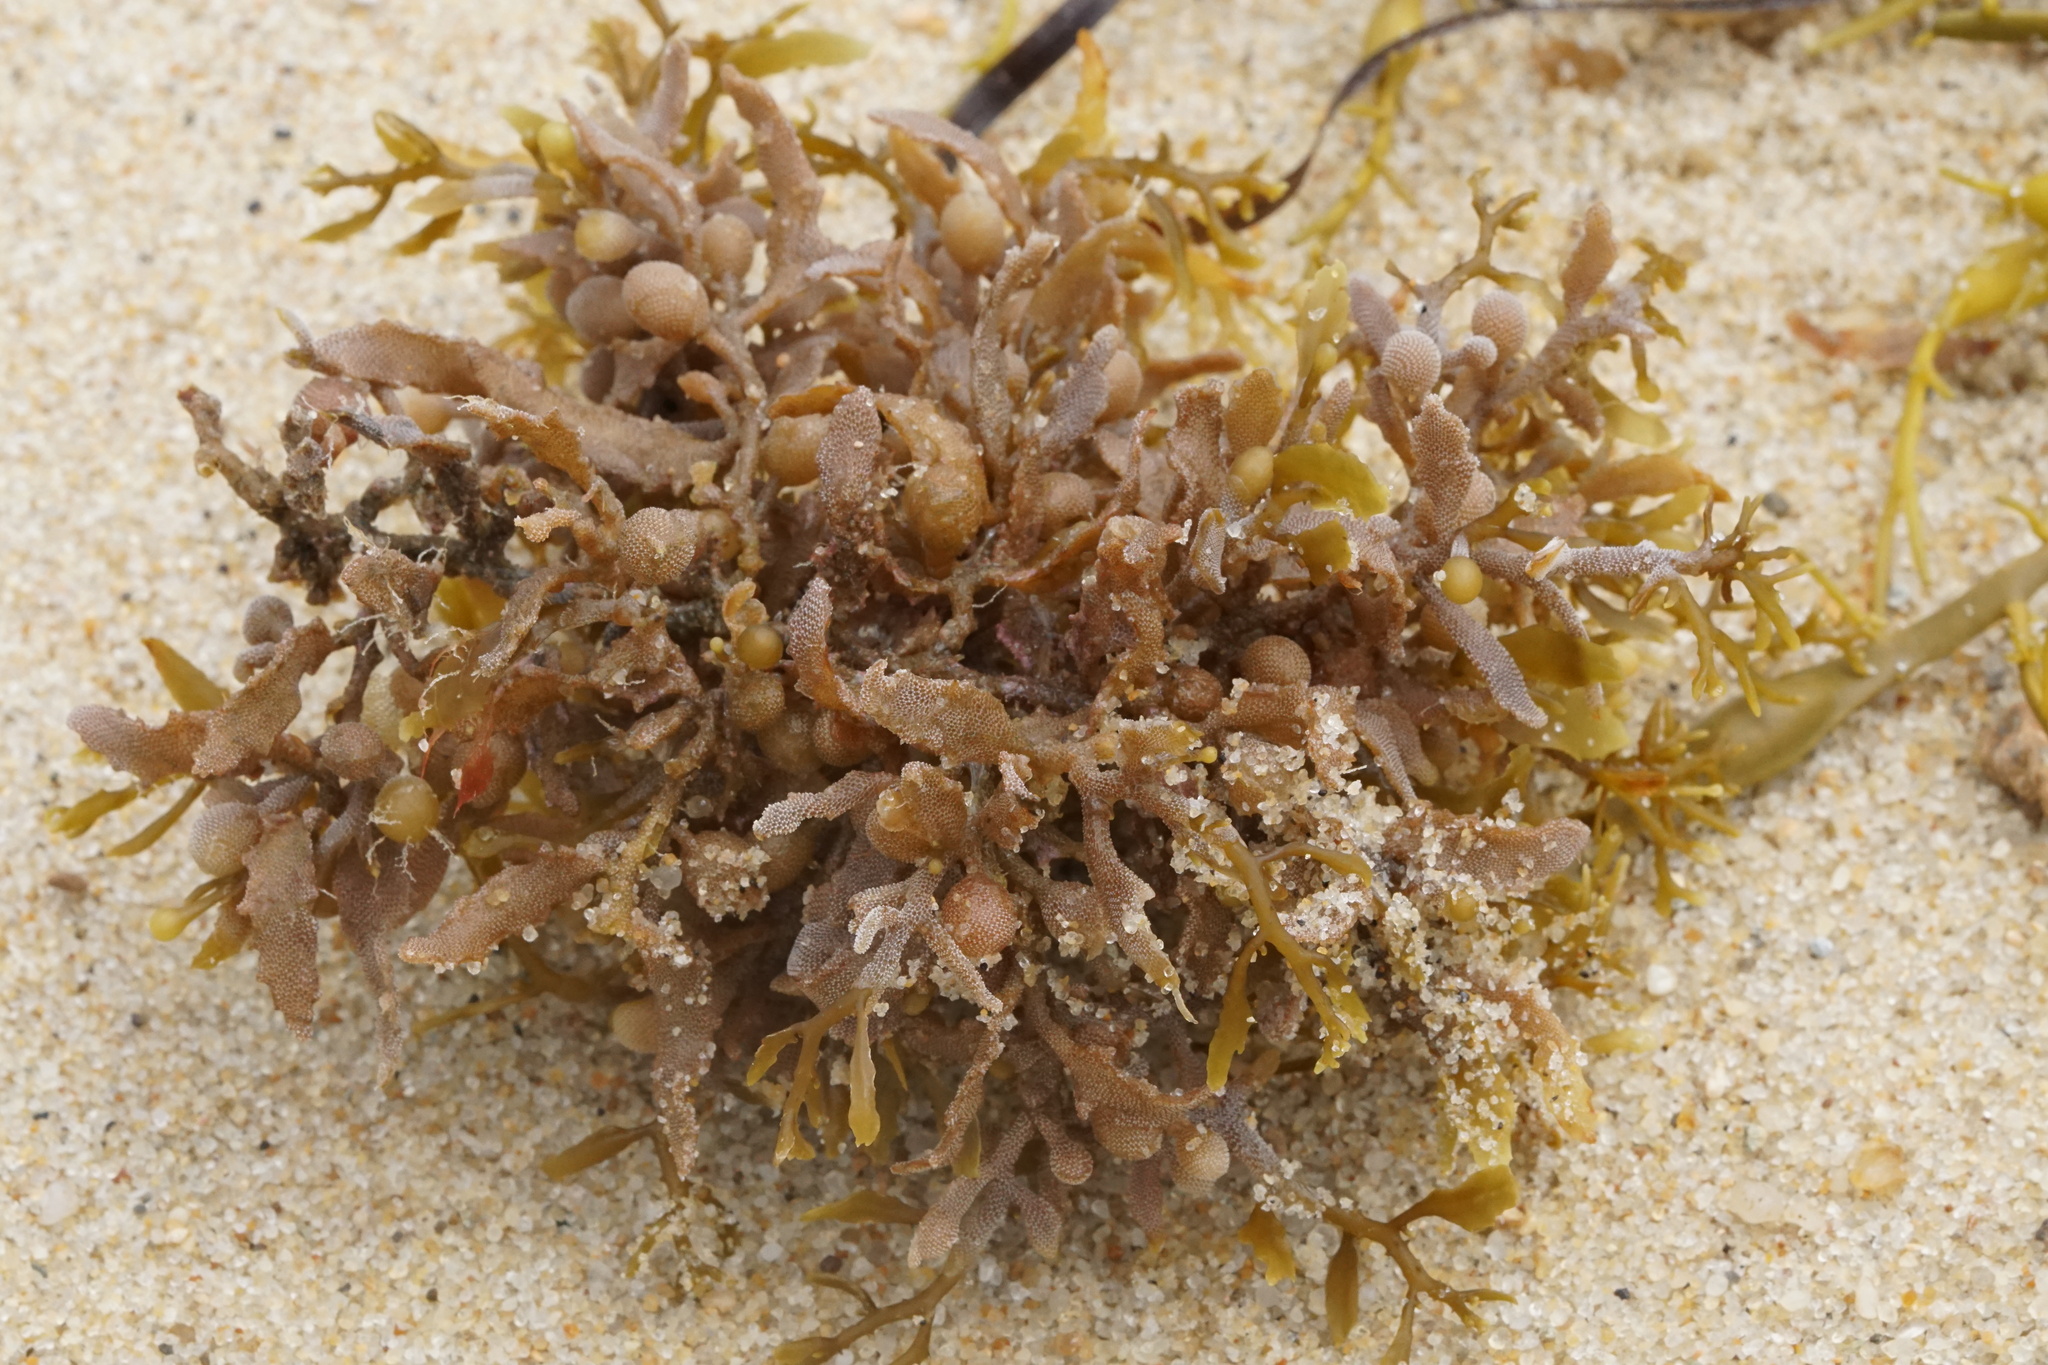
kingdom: Chromista
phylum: Ochrophyta
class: Phaeophyceae
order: Fucales
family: Sargassaceae
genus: Sargassum
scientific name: Sargassum fluitans
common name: Sargassum seaweed
